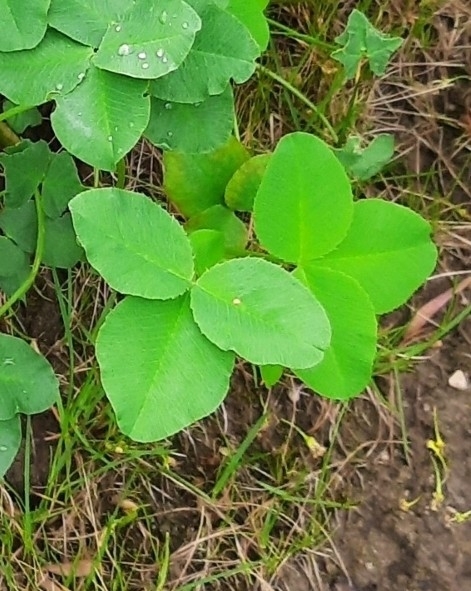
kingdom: Plantae
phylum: Tracheophyta
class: Magnoliopsida
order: Fabales
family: Fabaceae
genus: Trifolium
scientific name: Trifolium hybridum
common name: Alsike clover
